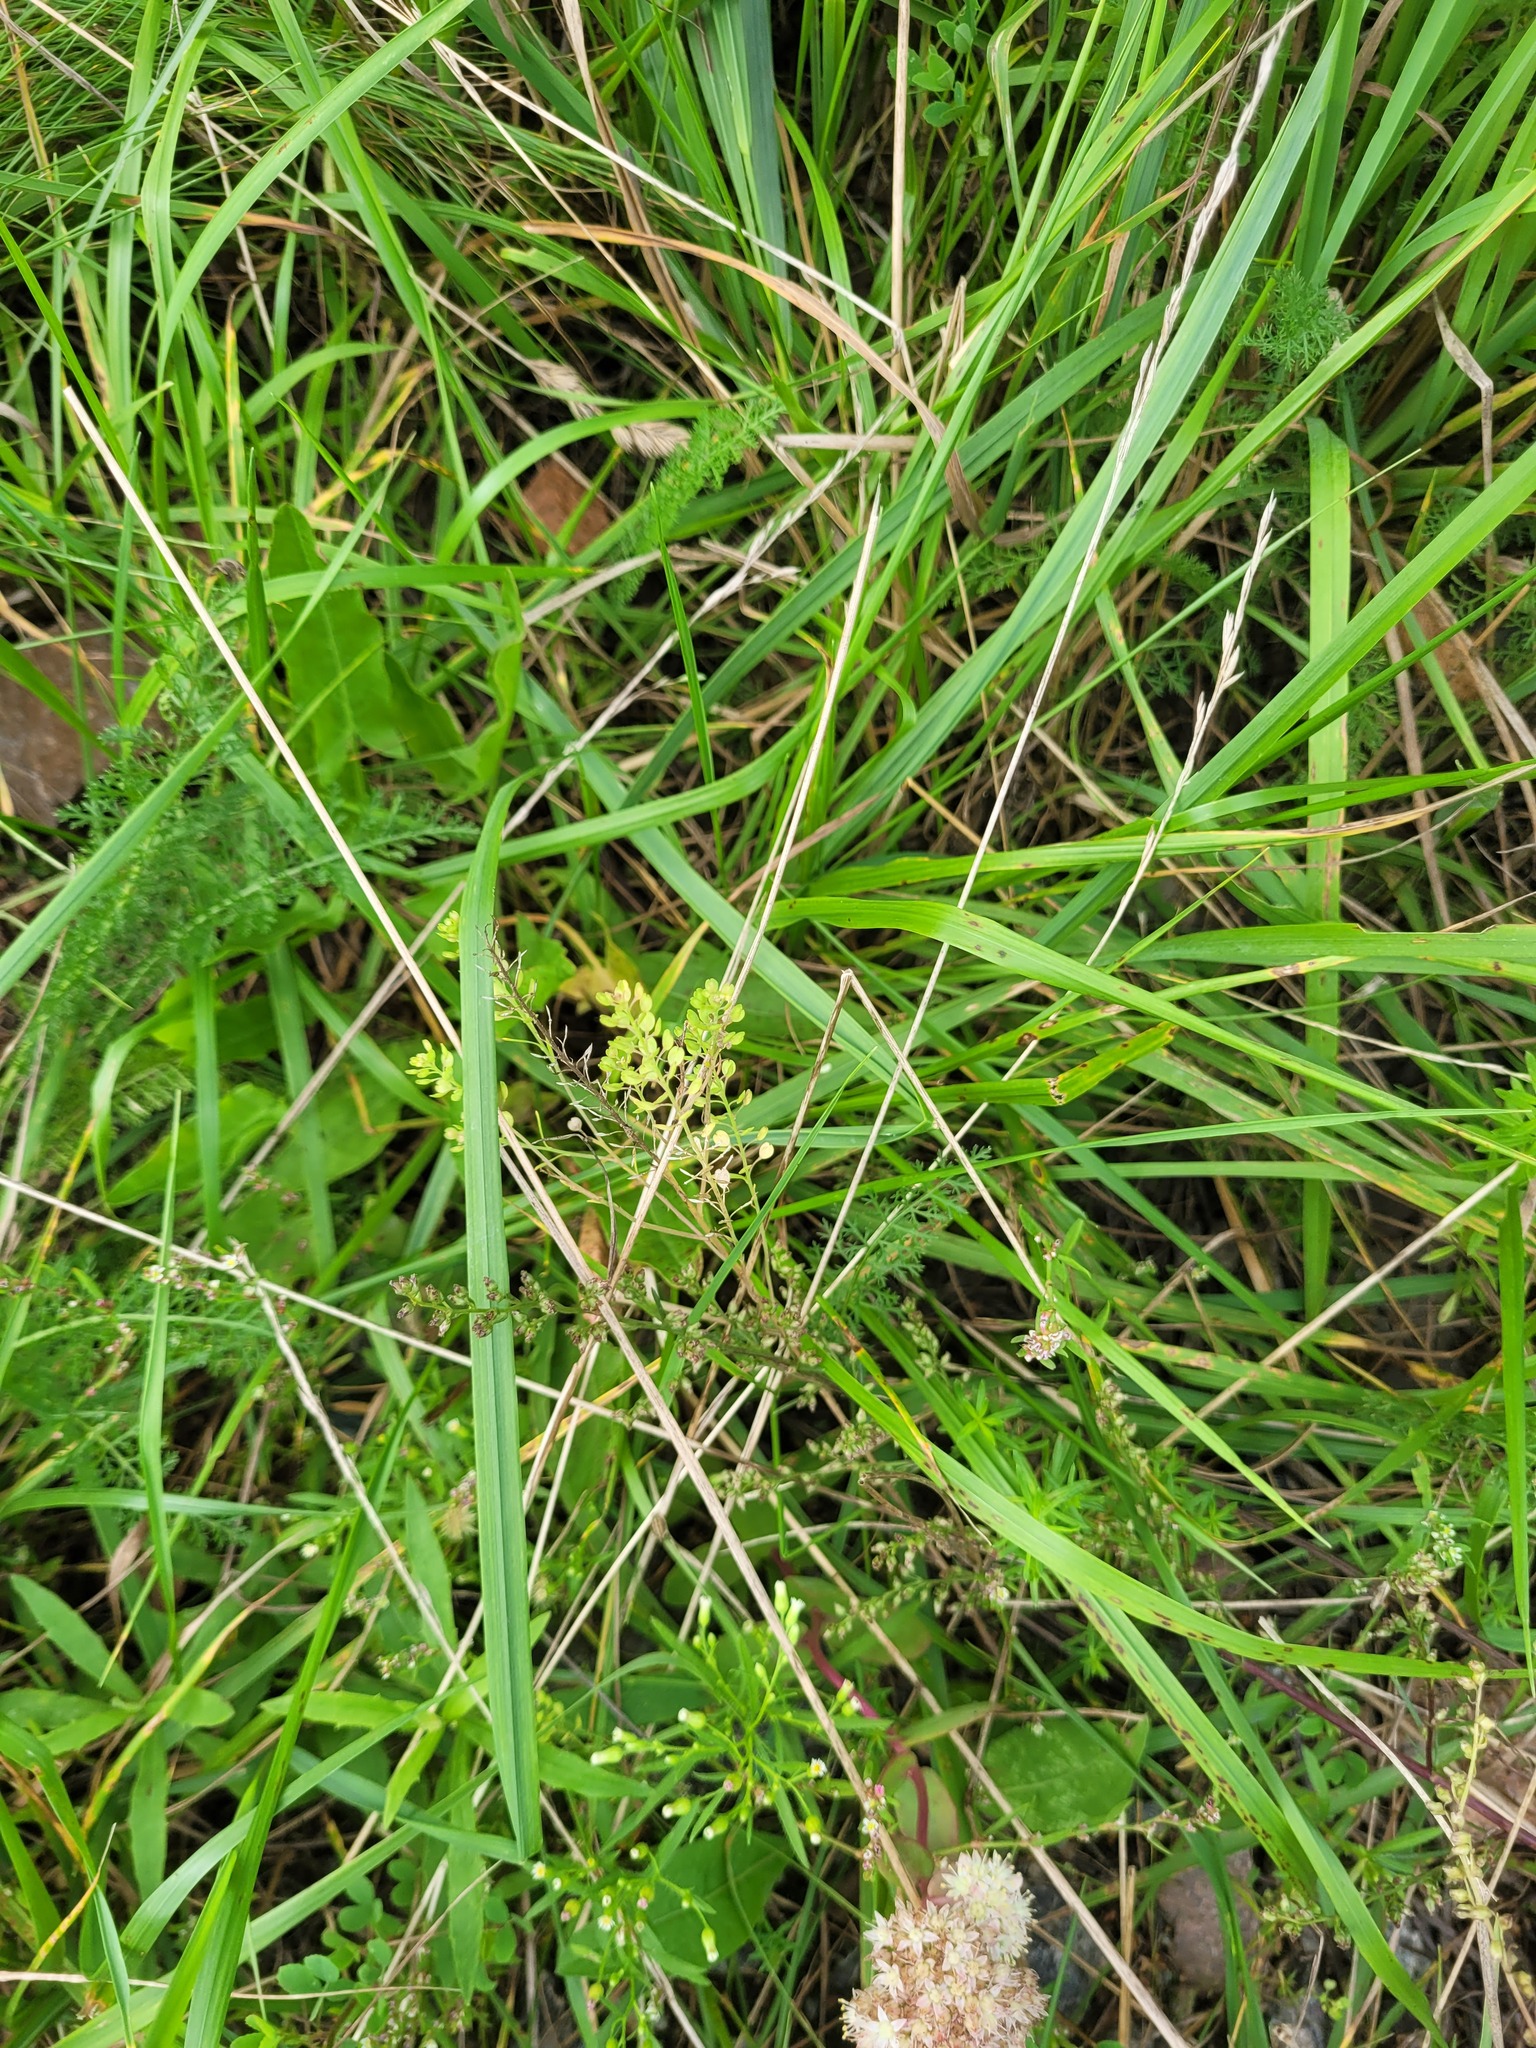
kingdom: Plantae
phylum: Tracheophyta
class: Magnoliopsida
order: Brassicales
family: Brassicaceae
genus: Lepidium
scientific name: Lepidium densiflorum
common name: Miner's pepperwort
